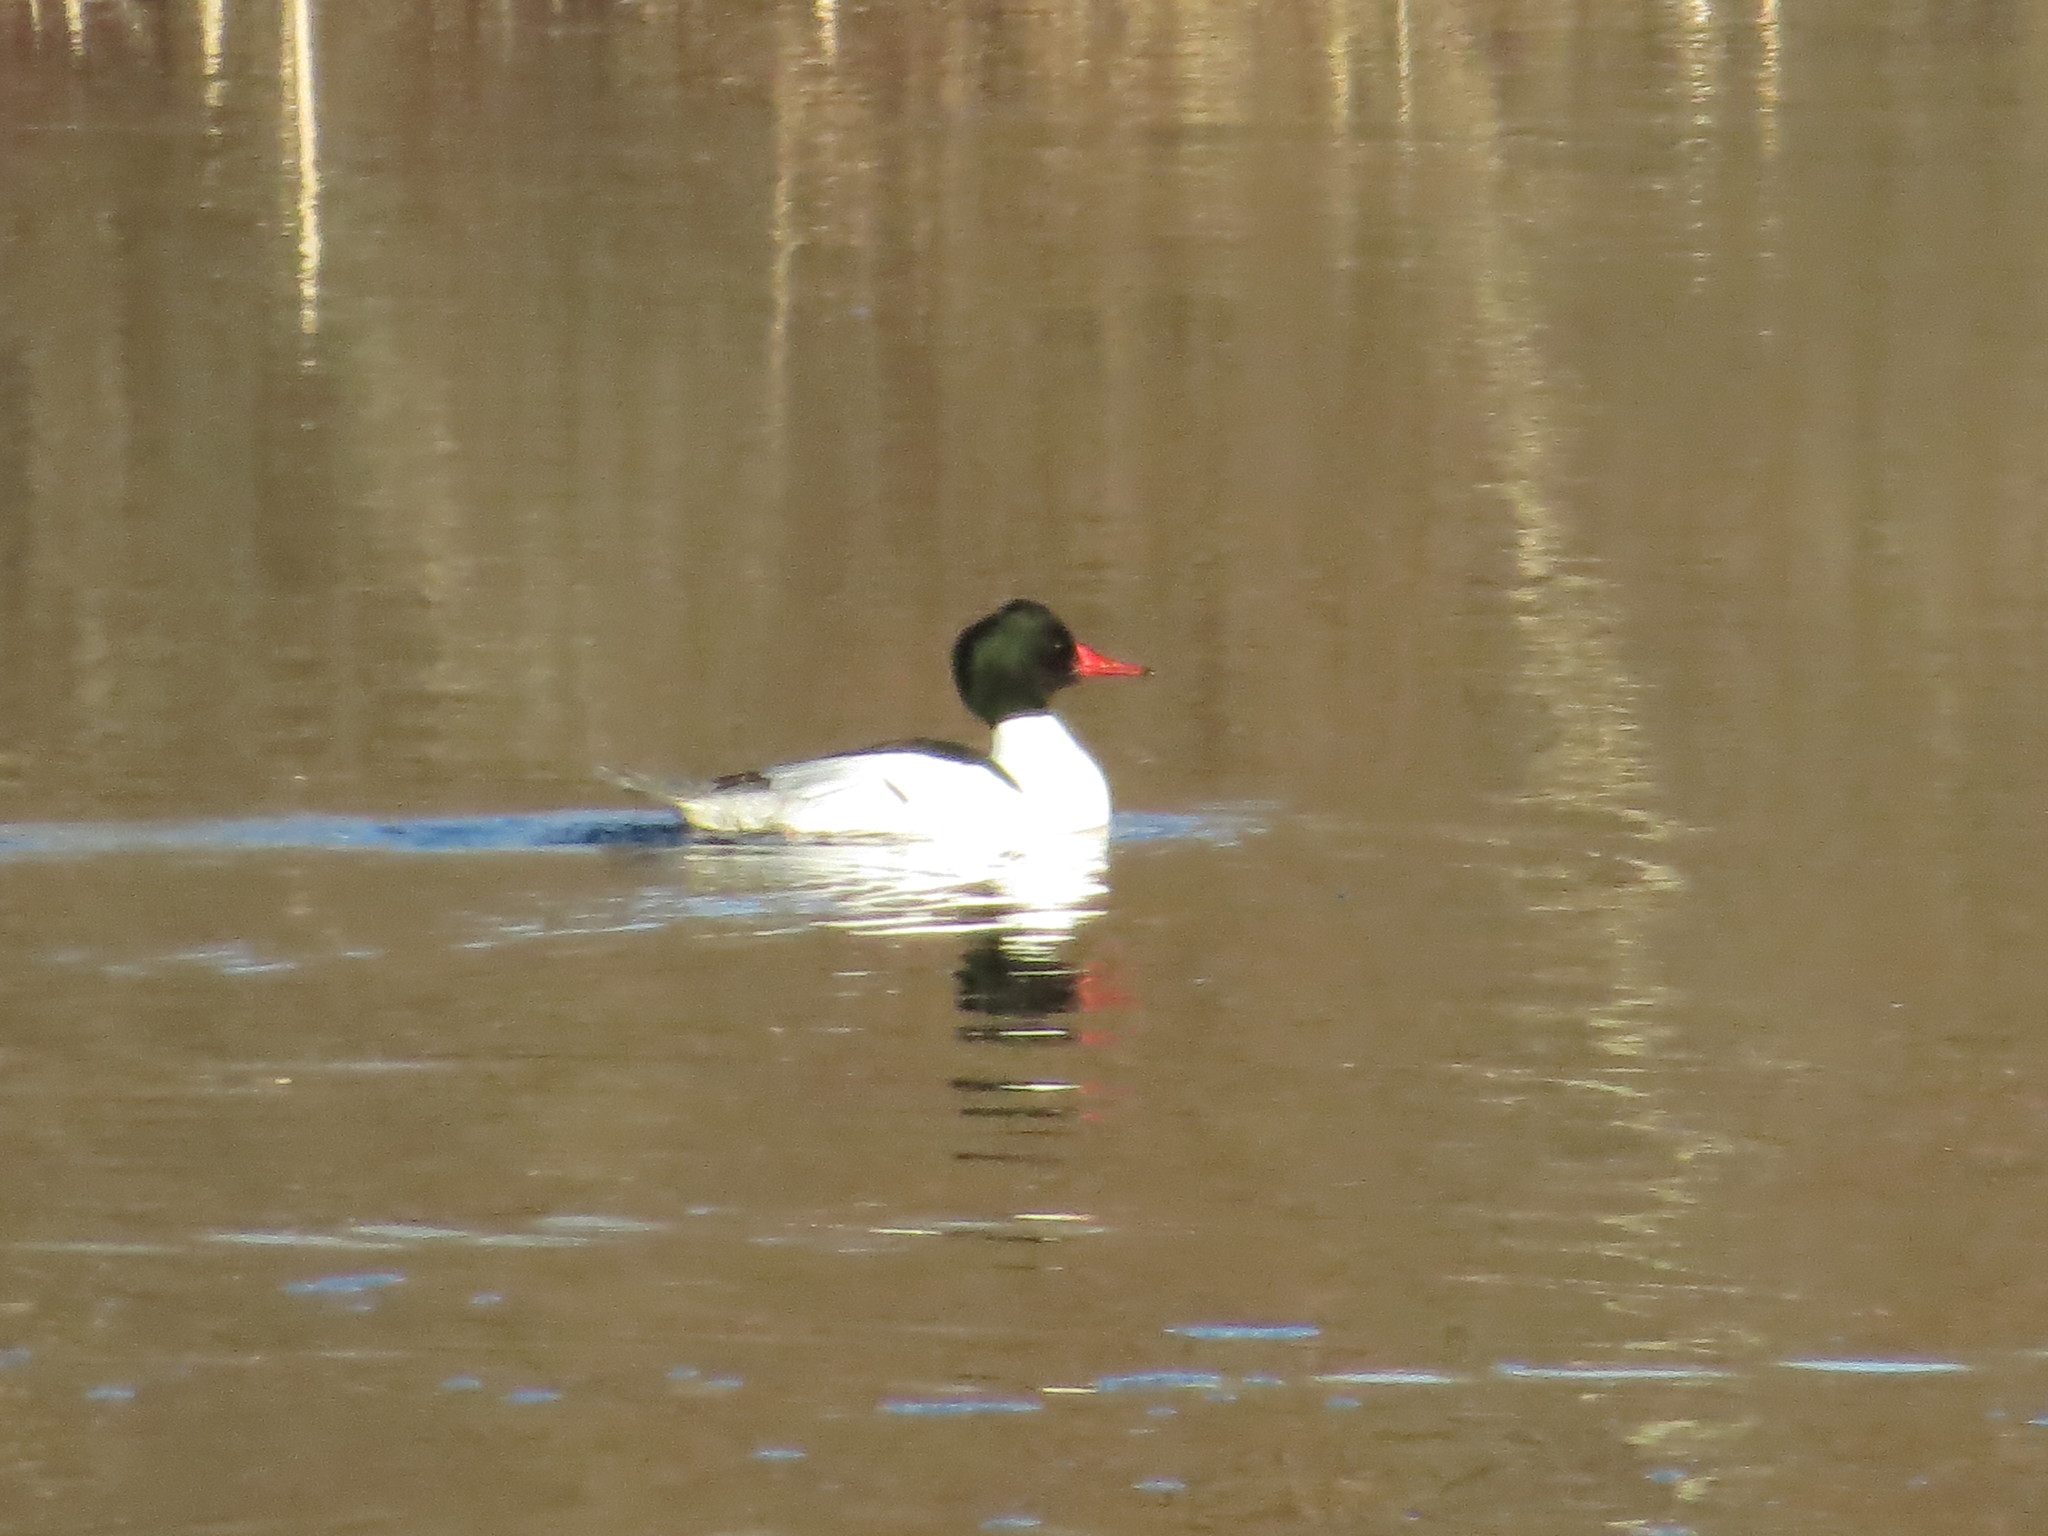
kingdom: Animalia
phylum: Chordata
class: Aves
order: Anseriformes
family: Anatidae
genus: Mergus
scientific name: Mergus merganser
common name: Common merganser
